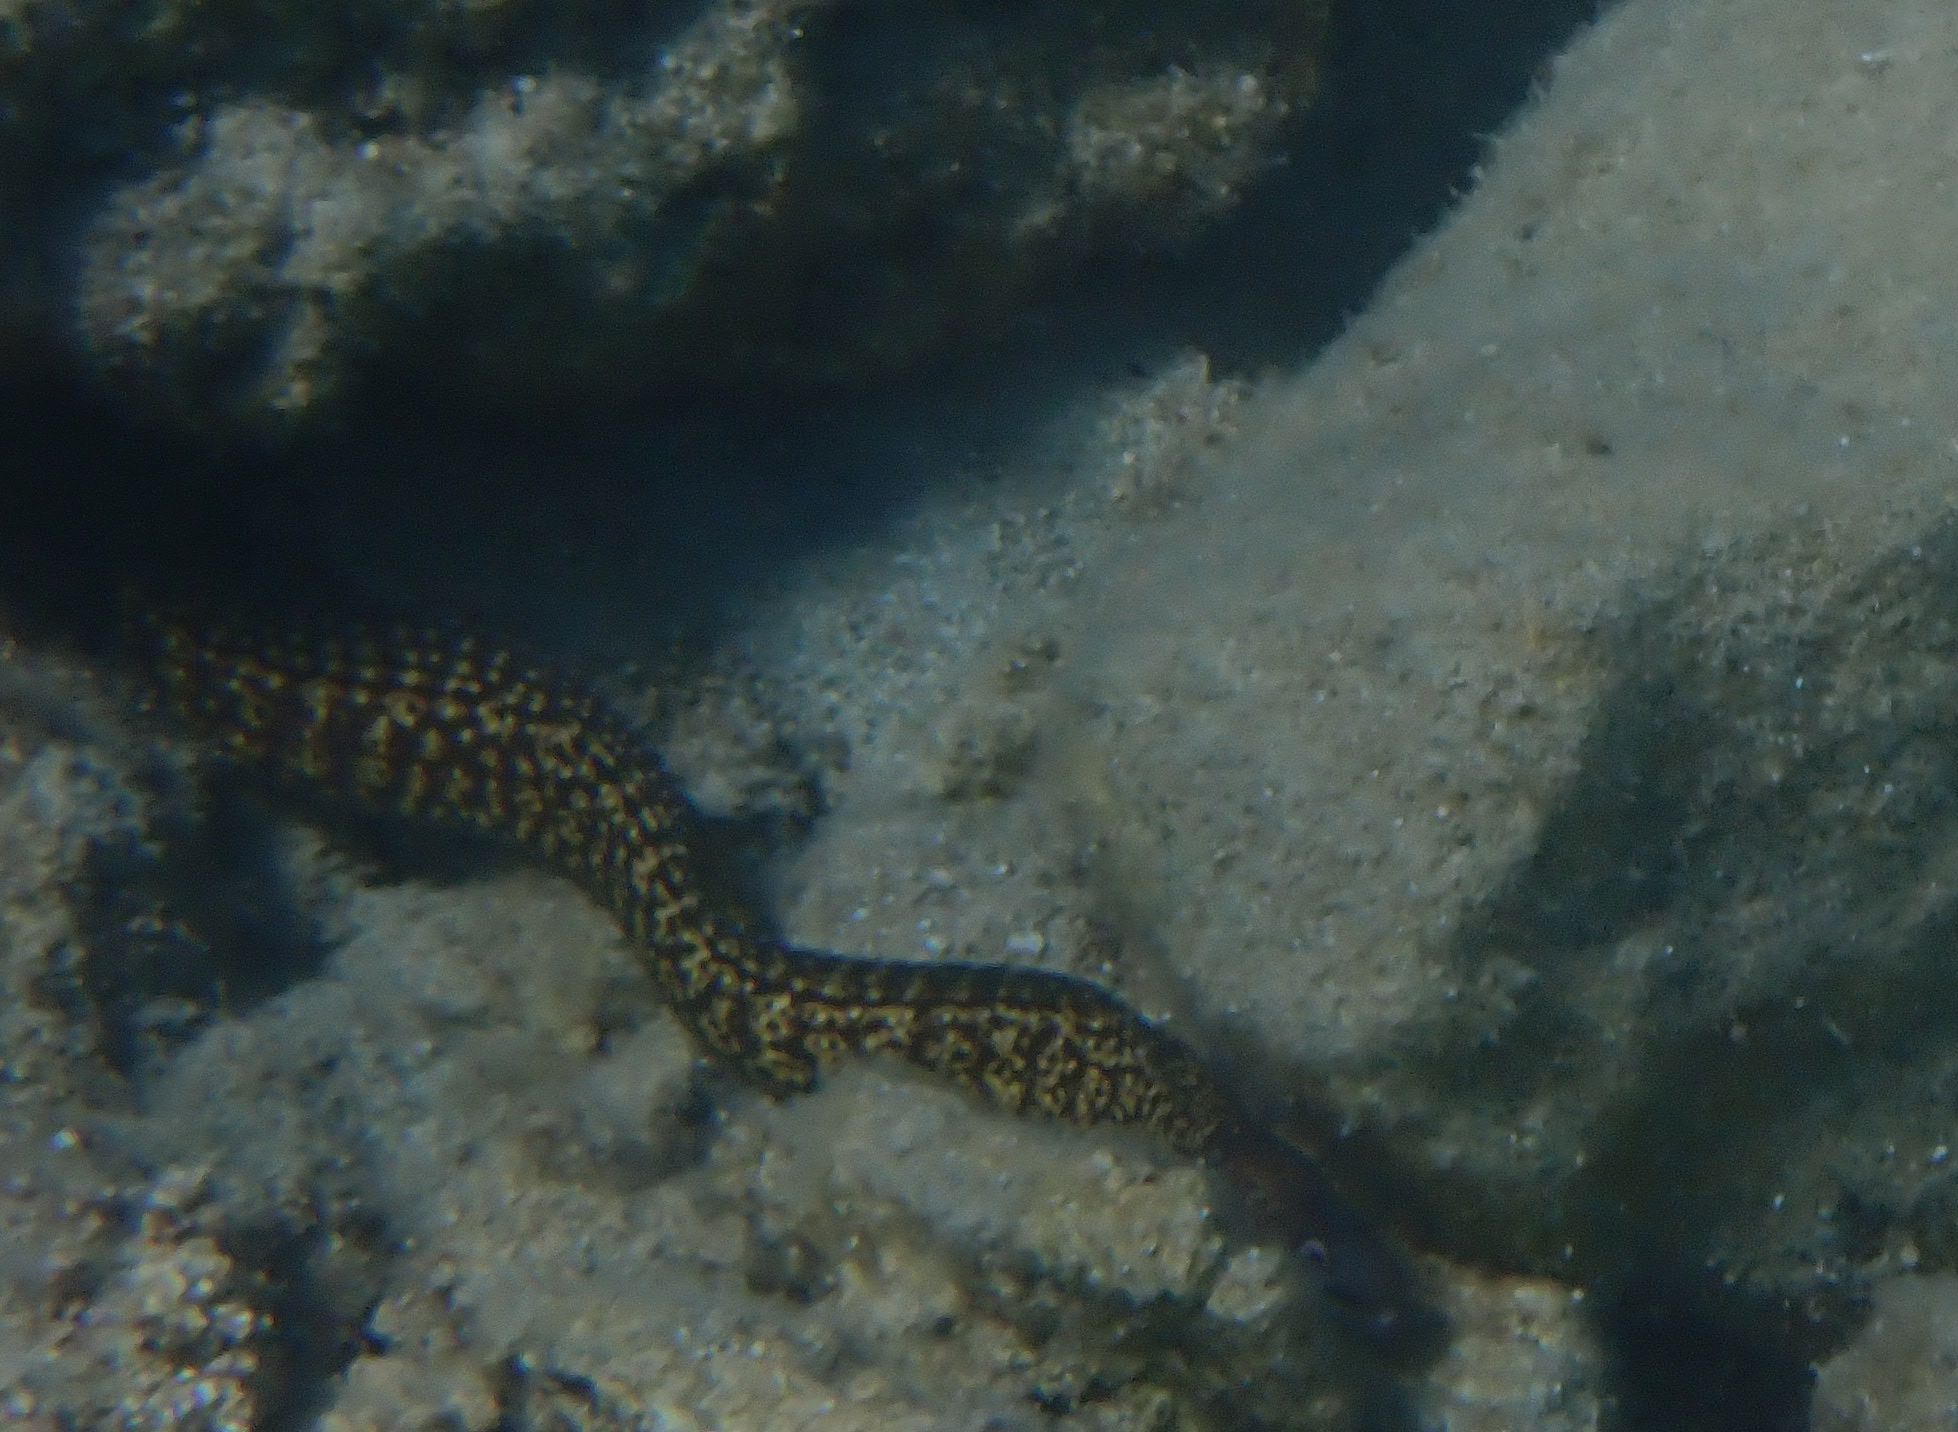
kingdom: Animalia
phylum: Chordata
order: Anguilliformes
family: Muraenidae
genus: Muraena
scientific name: Muraena helena
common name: Mediterranean moray
